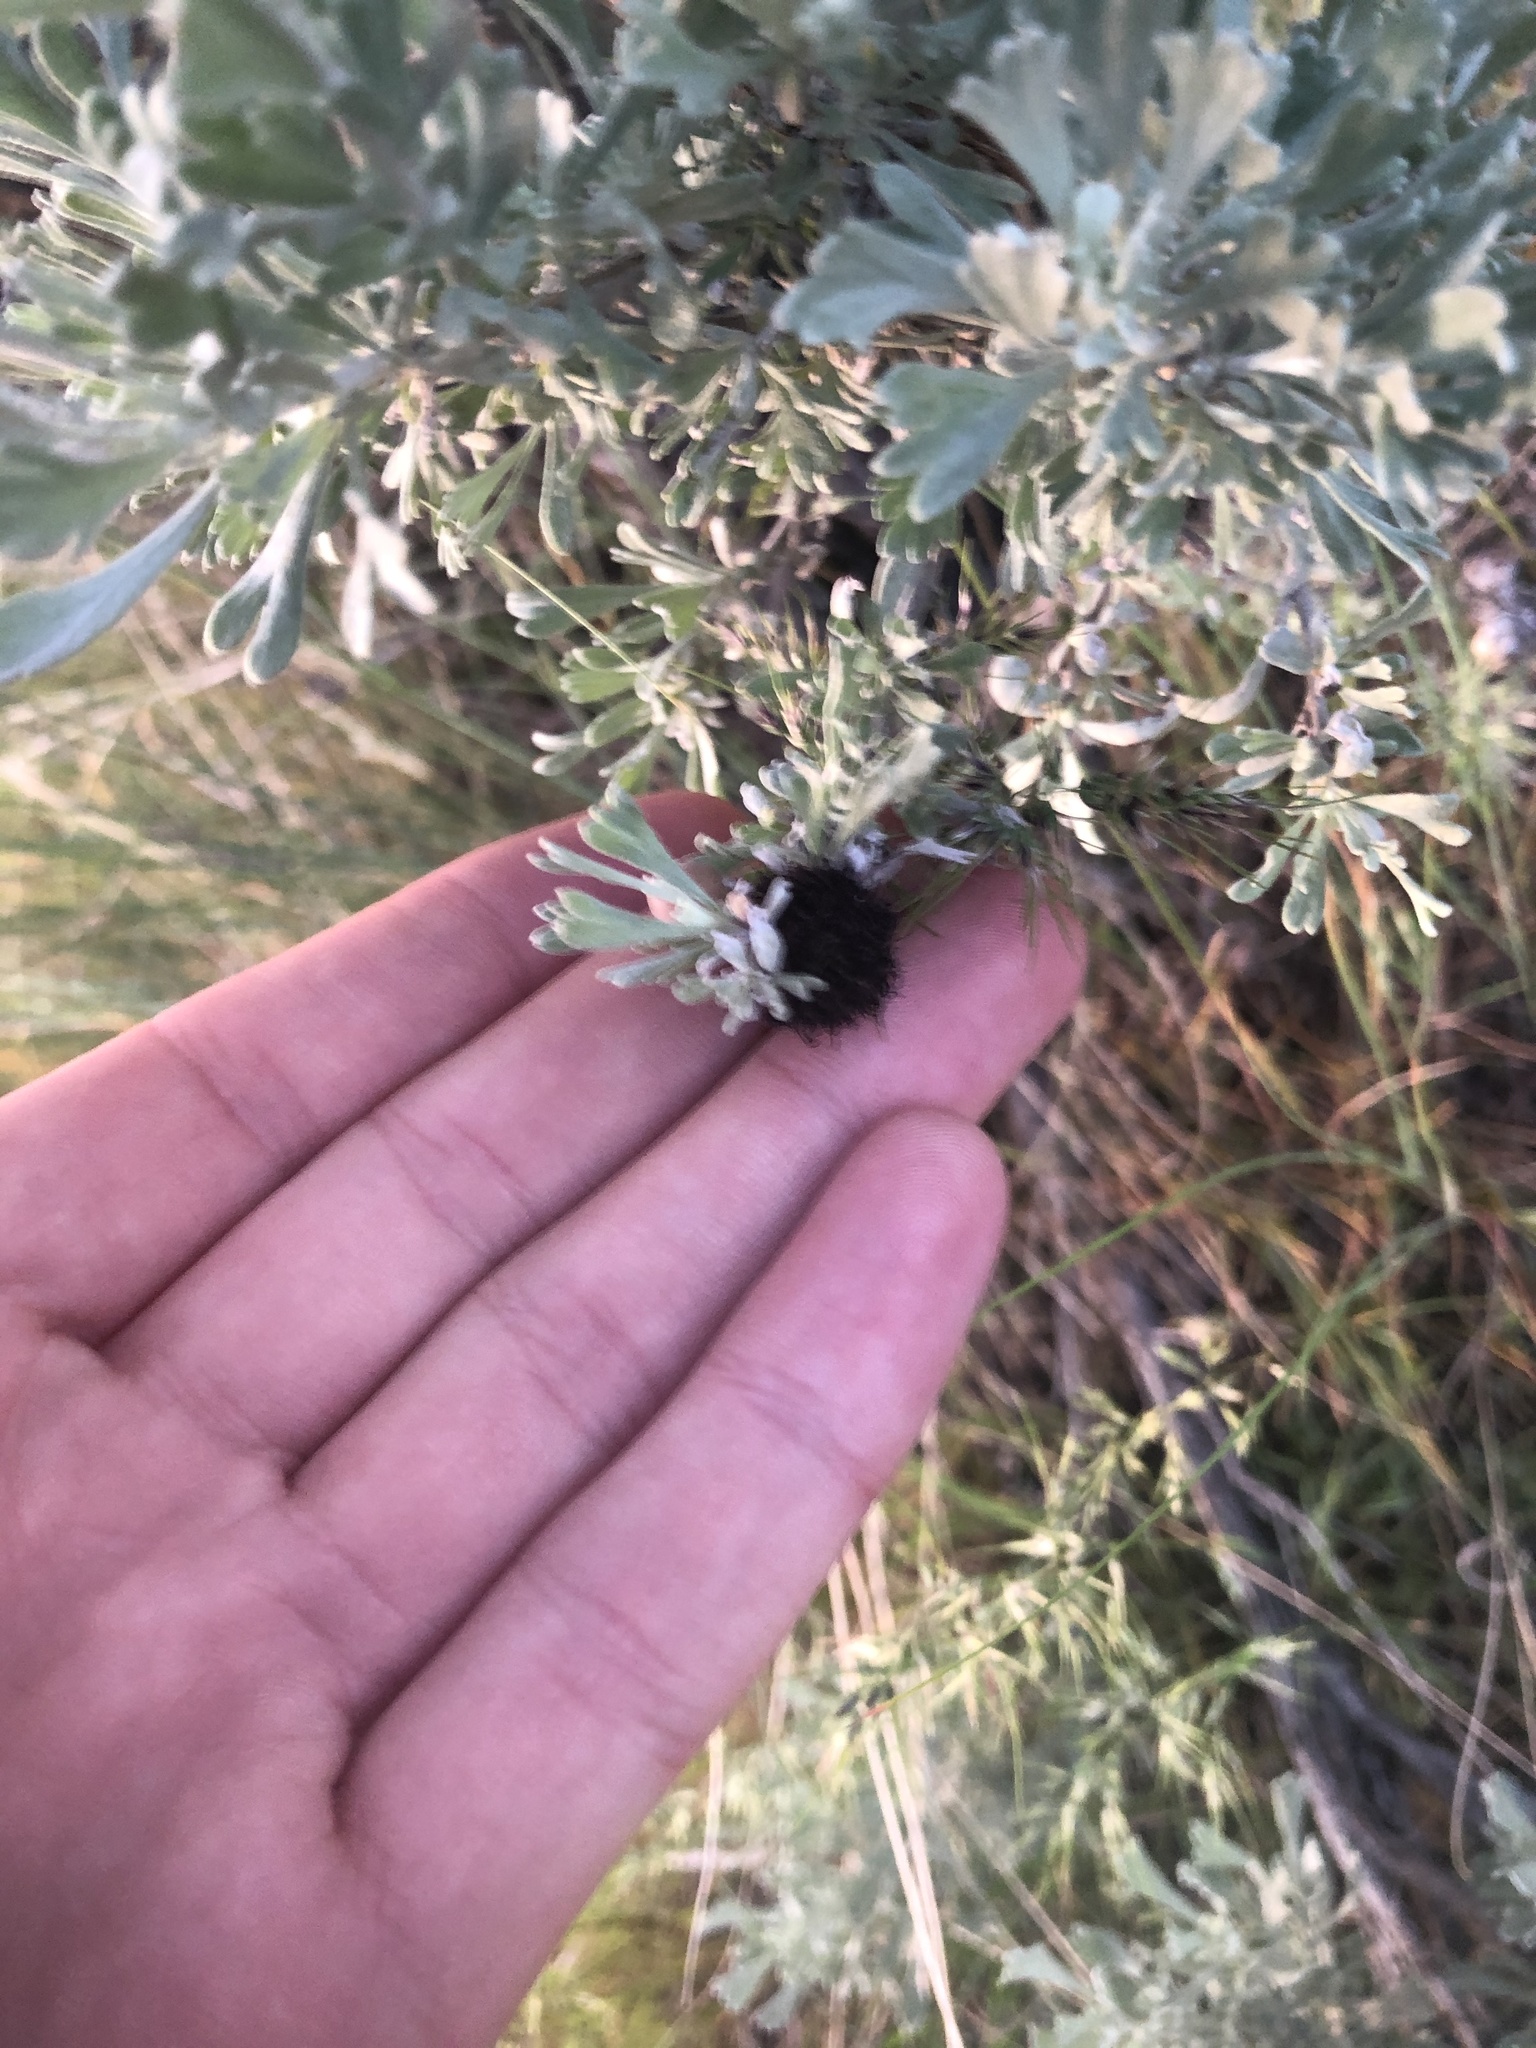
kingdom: Animalia
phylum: Arthropoda
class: Insecta
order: Diptera
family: Cecidomyiidae
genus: Rhopalomyia
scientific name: Rhopalomyia medusa
